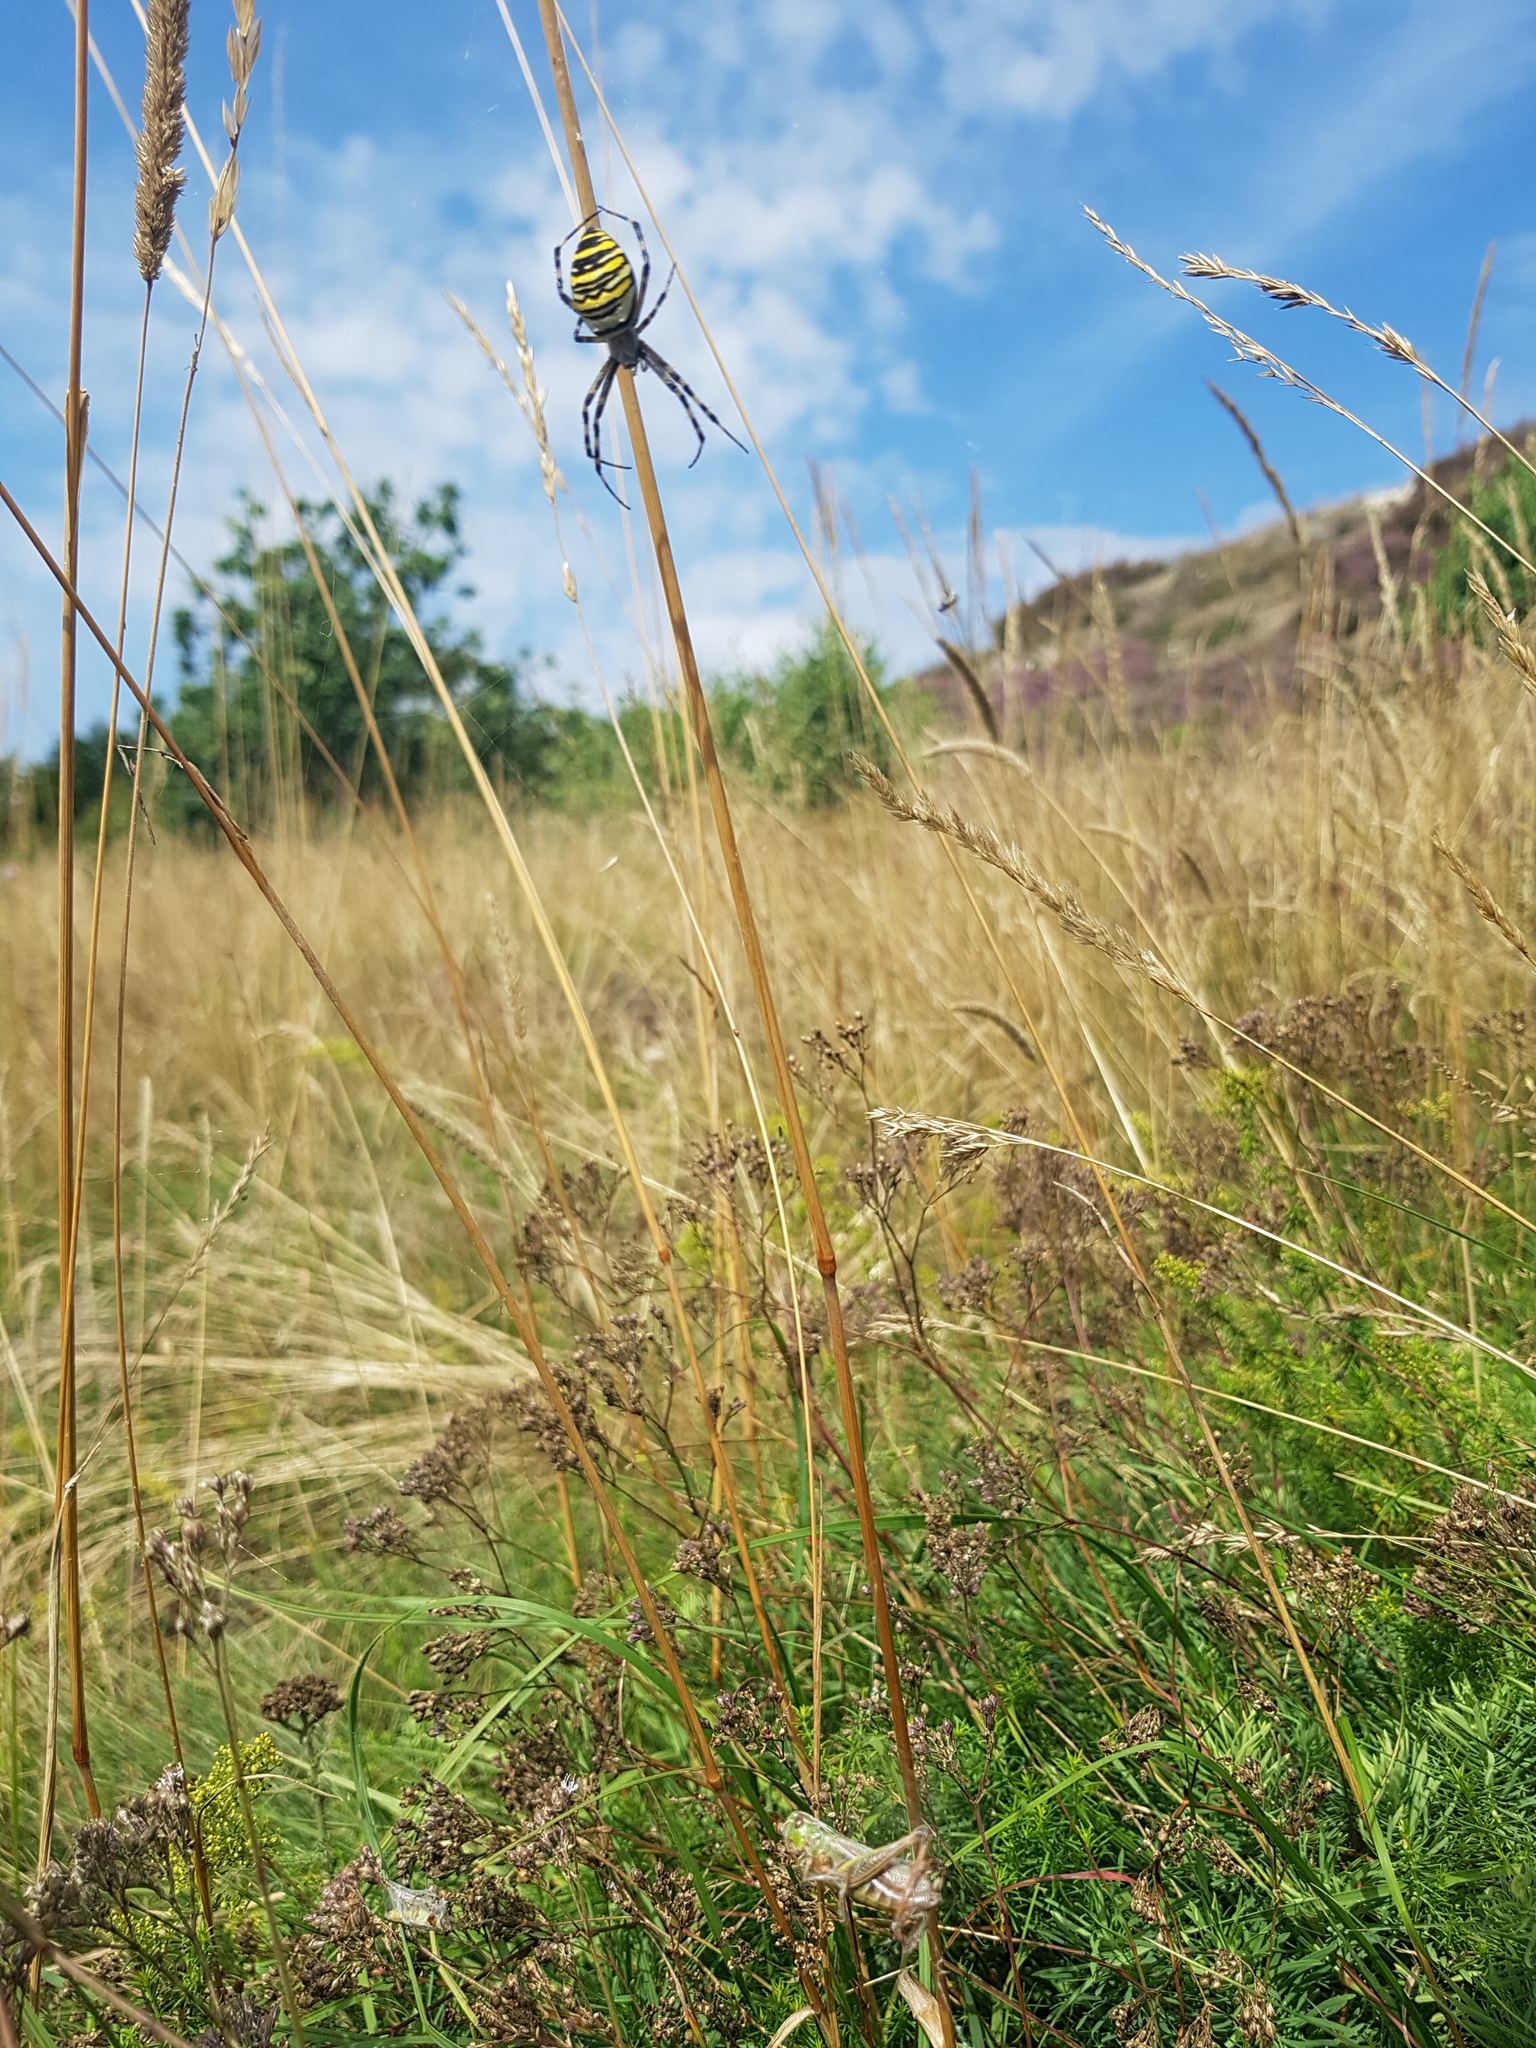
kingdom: Animalia
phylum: Arthropoda
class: Arachnida
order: Araneae
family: Araneidae
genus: Argiope
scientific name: Argiope bruennichi
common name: Wasp spider
